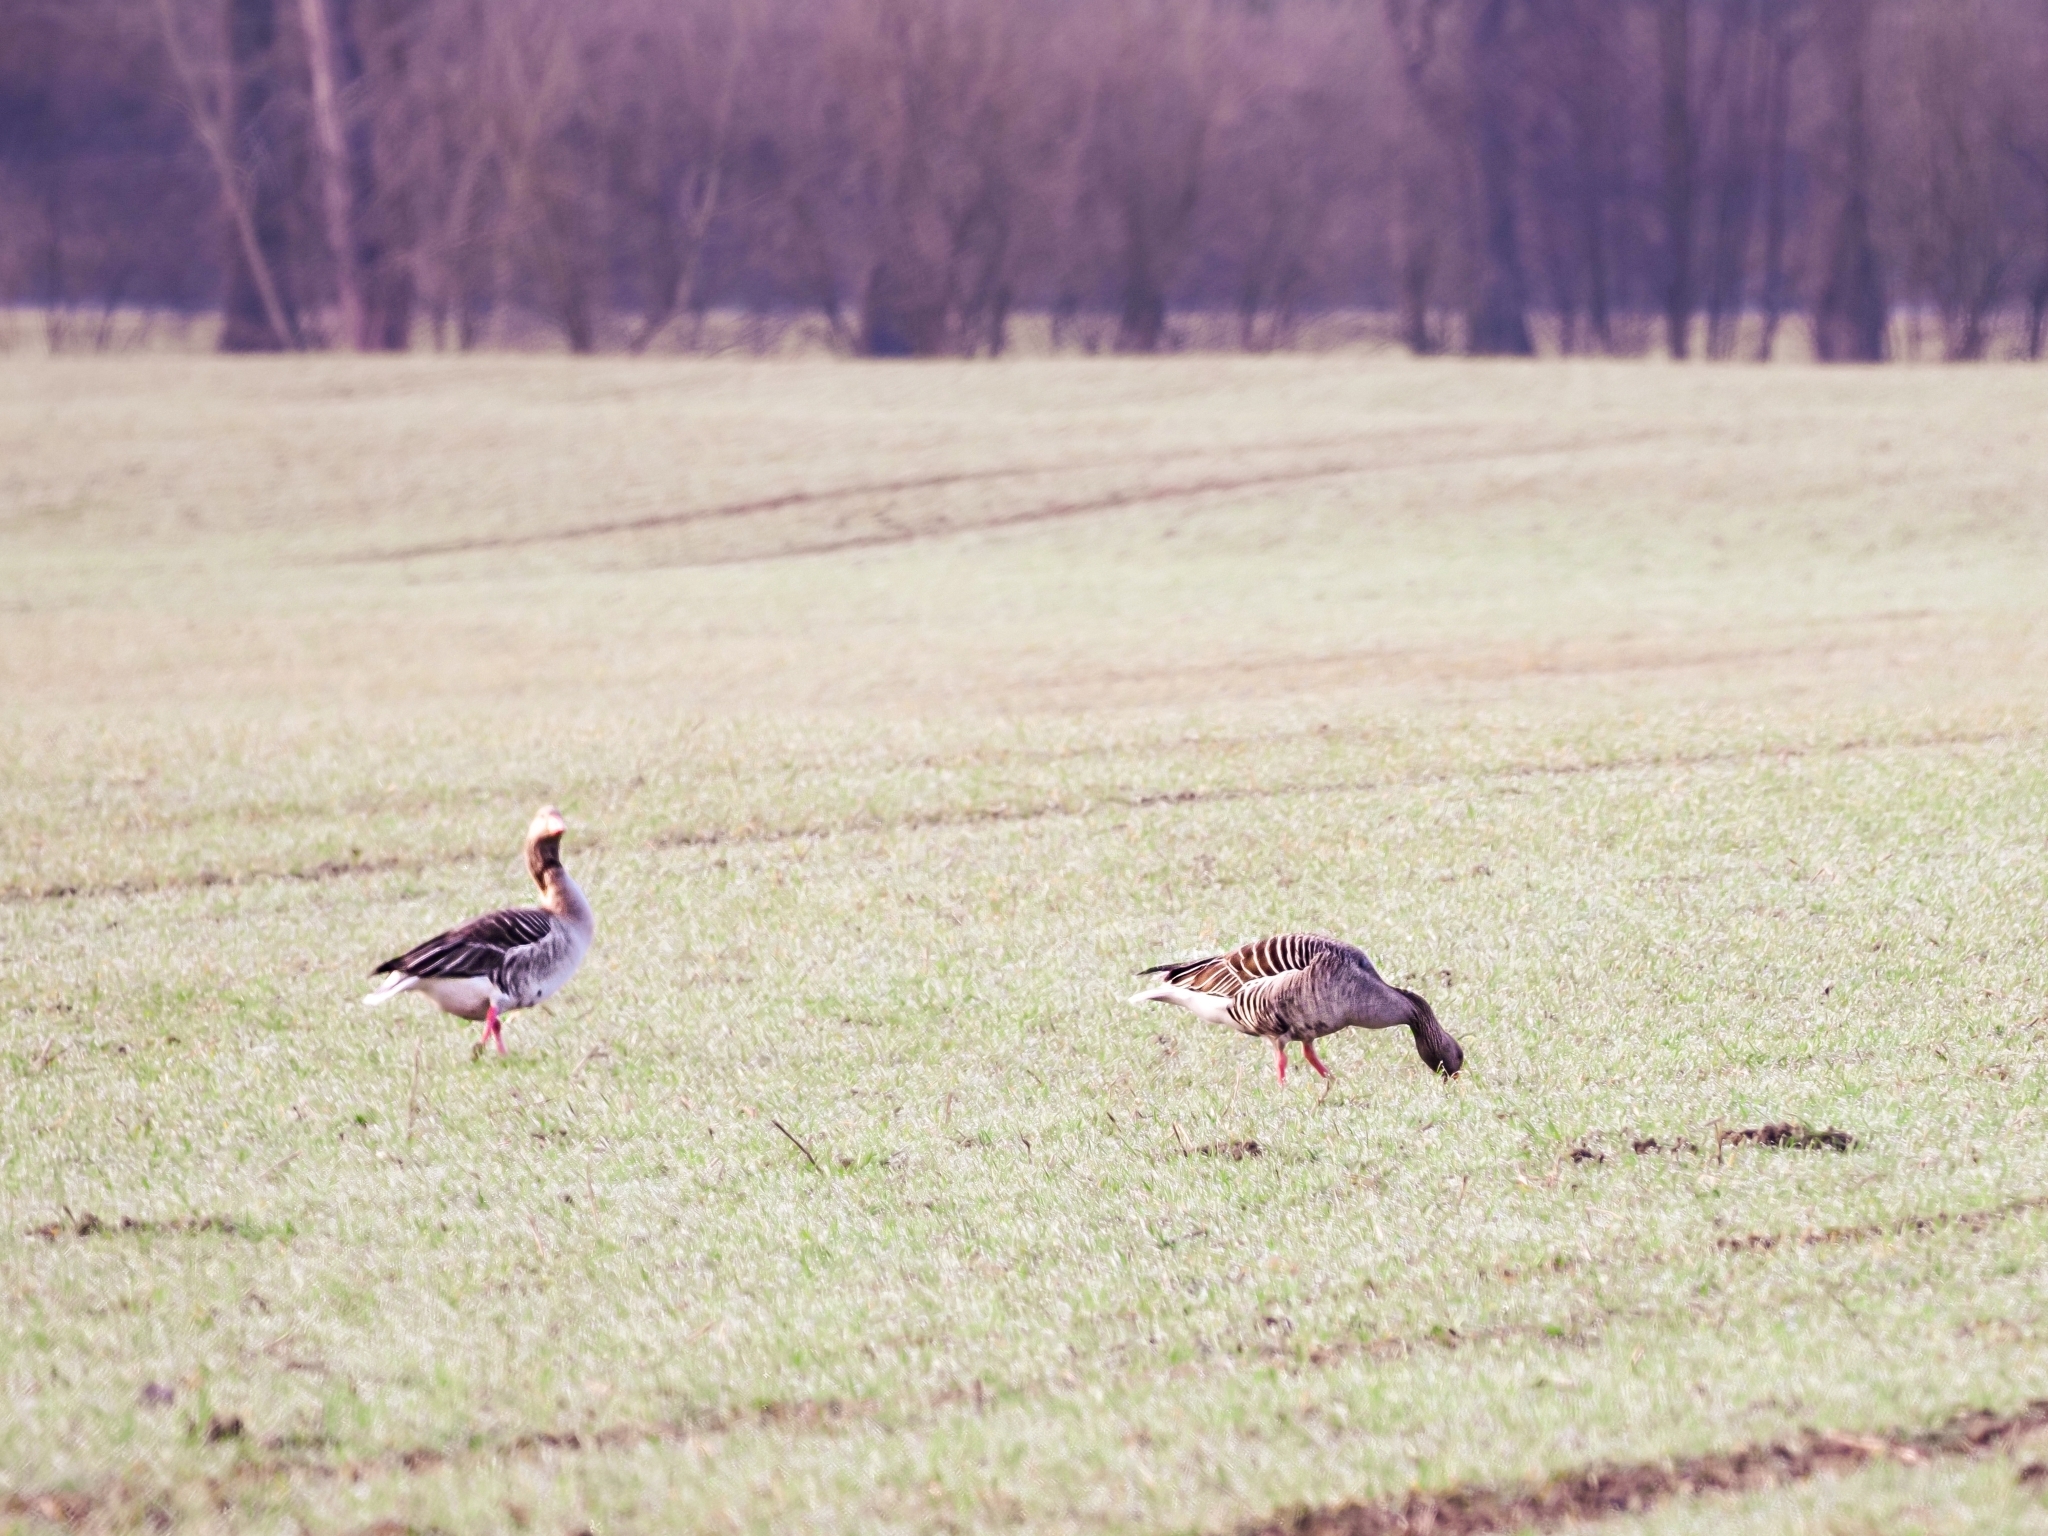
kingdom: Animalia
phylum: Chordata
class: Aves
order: Anseriformes
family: Anatidae
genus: Anser
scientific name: Anser anser
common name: Greylag goose
